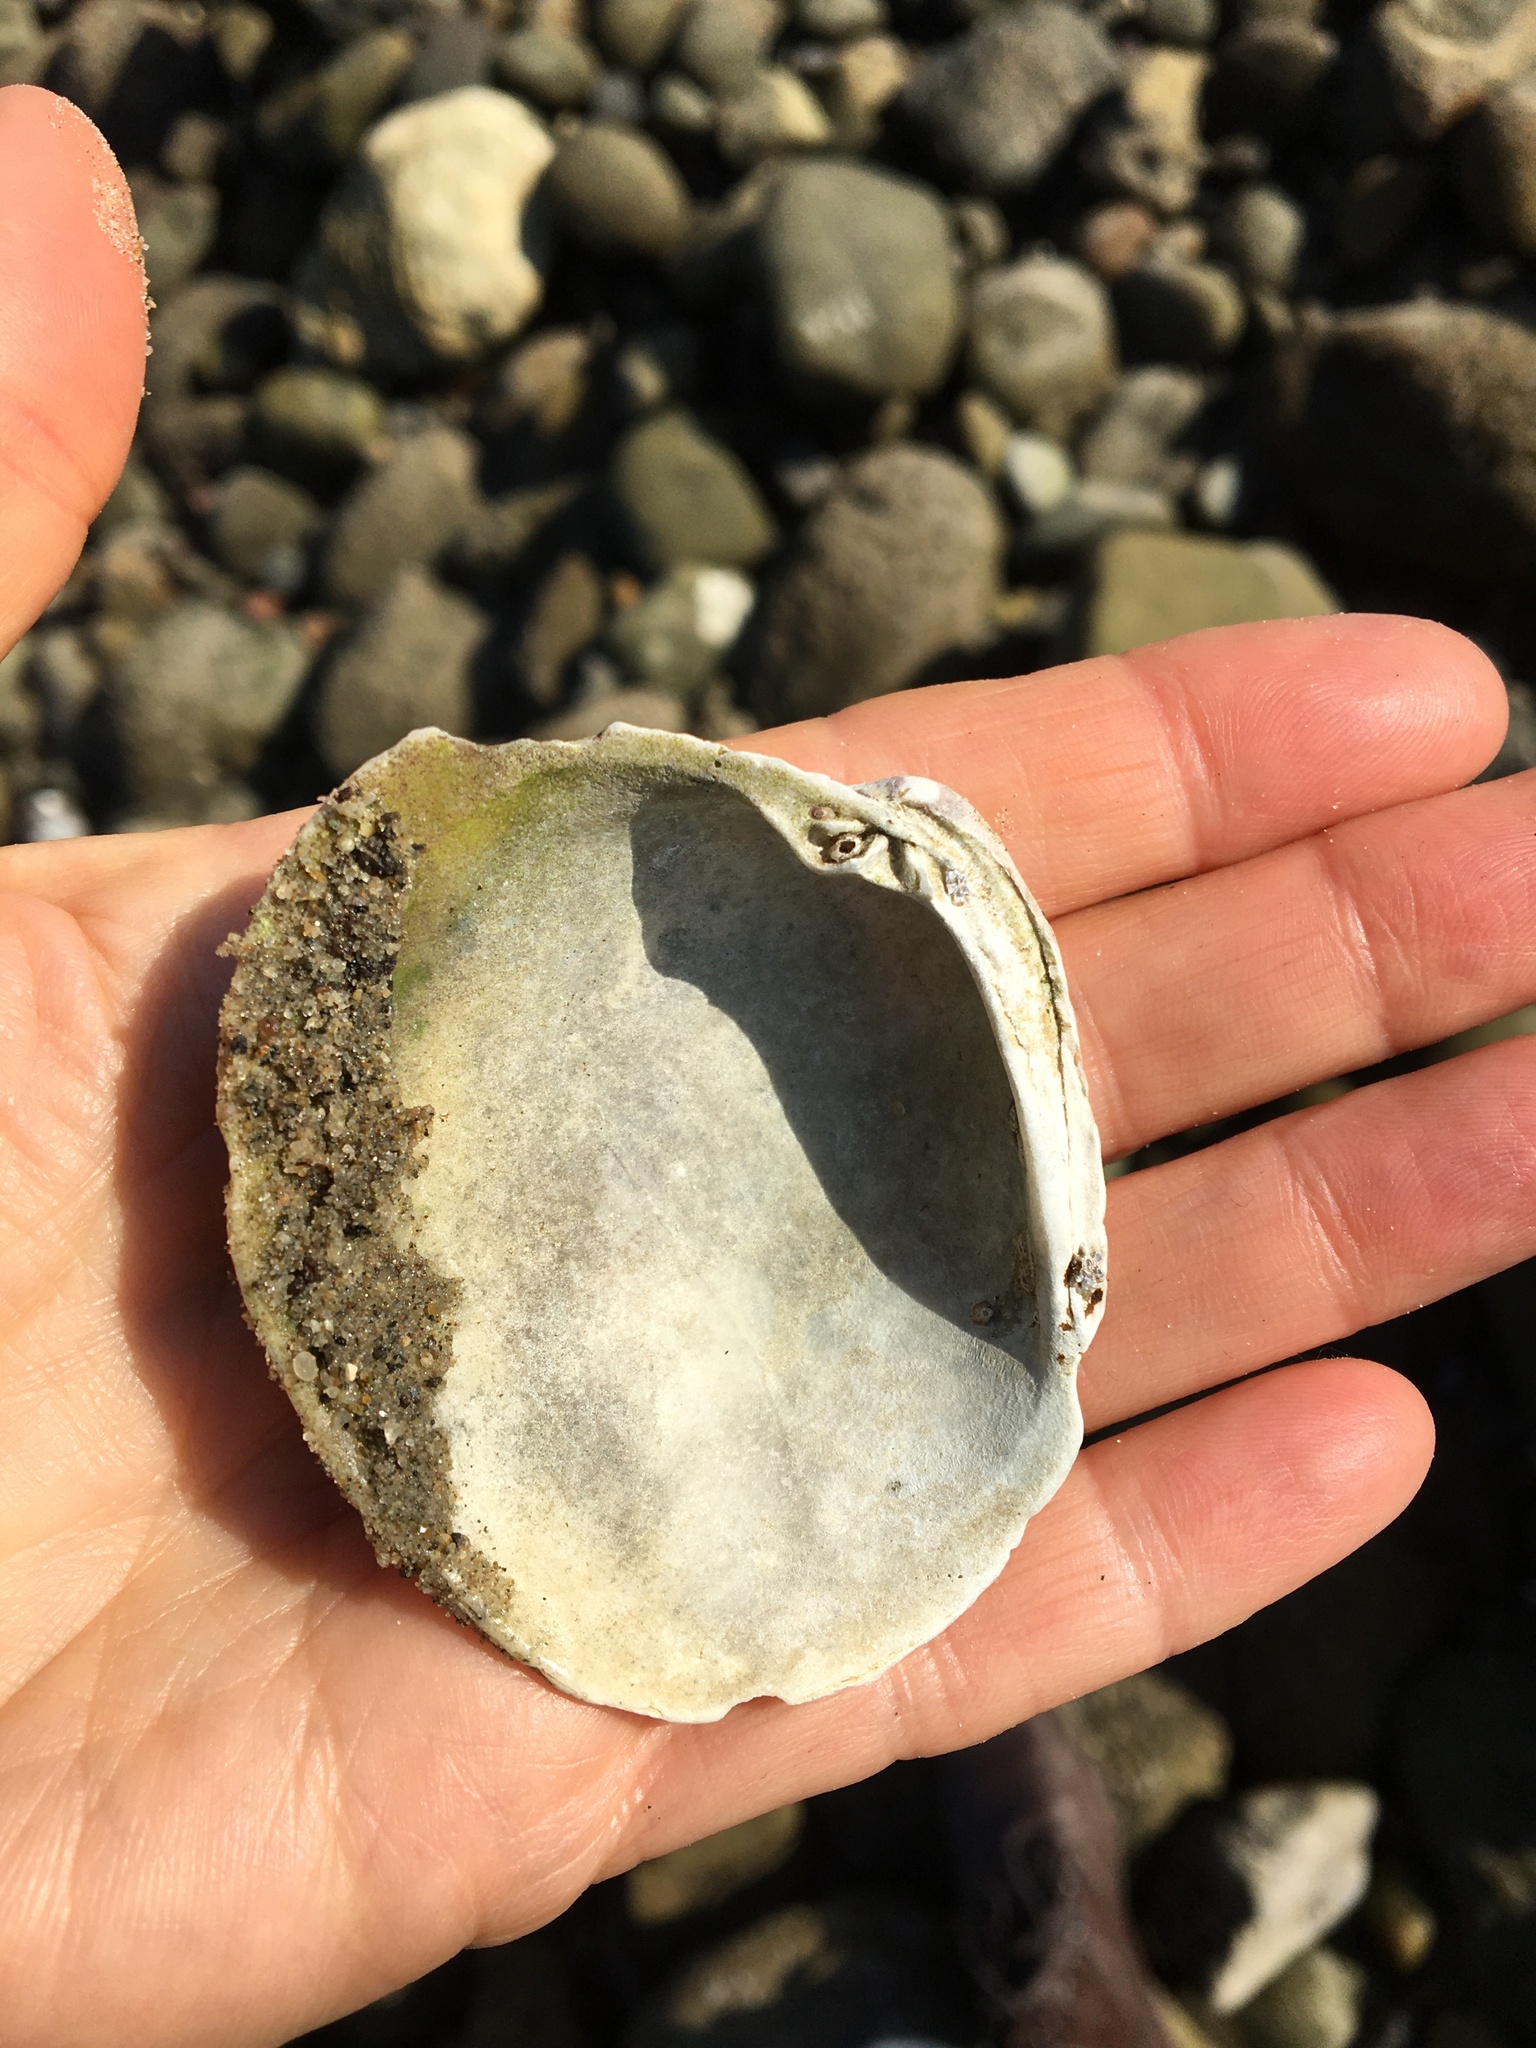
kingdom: Animalia
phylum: Mollusca
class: Bivalvia
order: Venerida
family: Veneridae
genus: Leukoma
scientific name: Leukoma staminea
